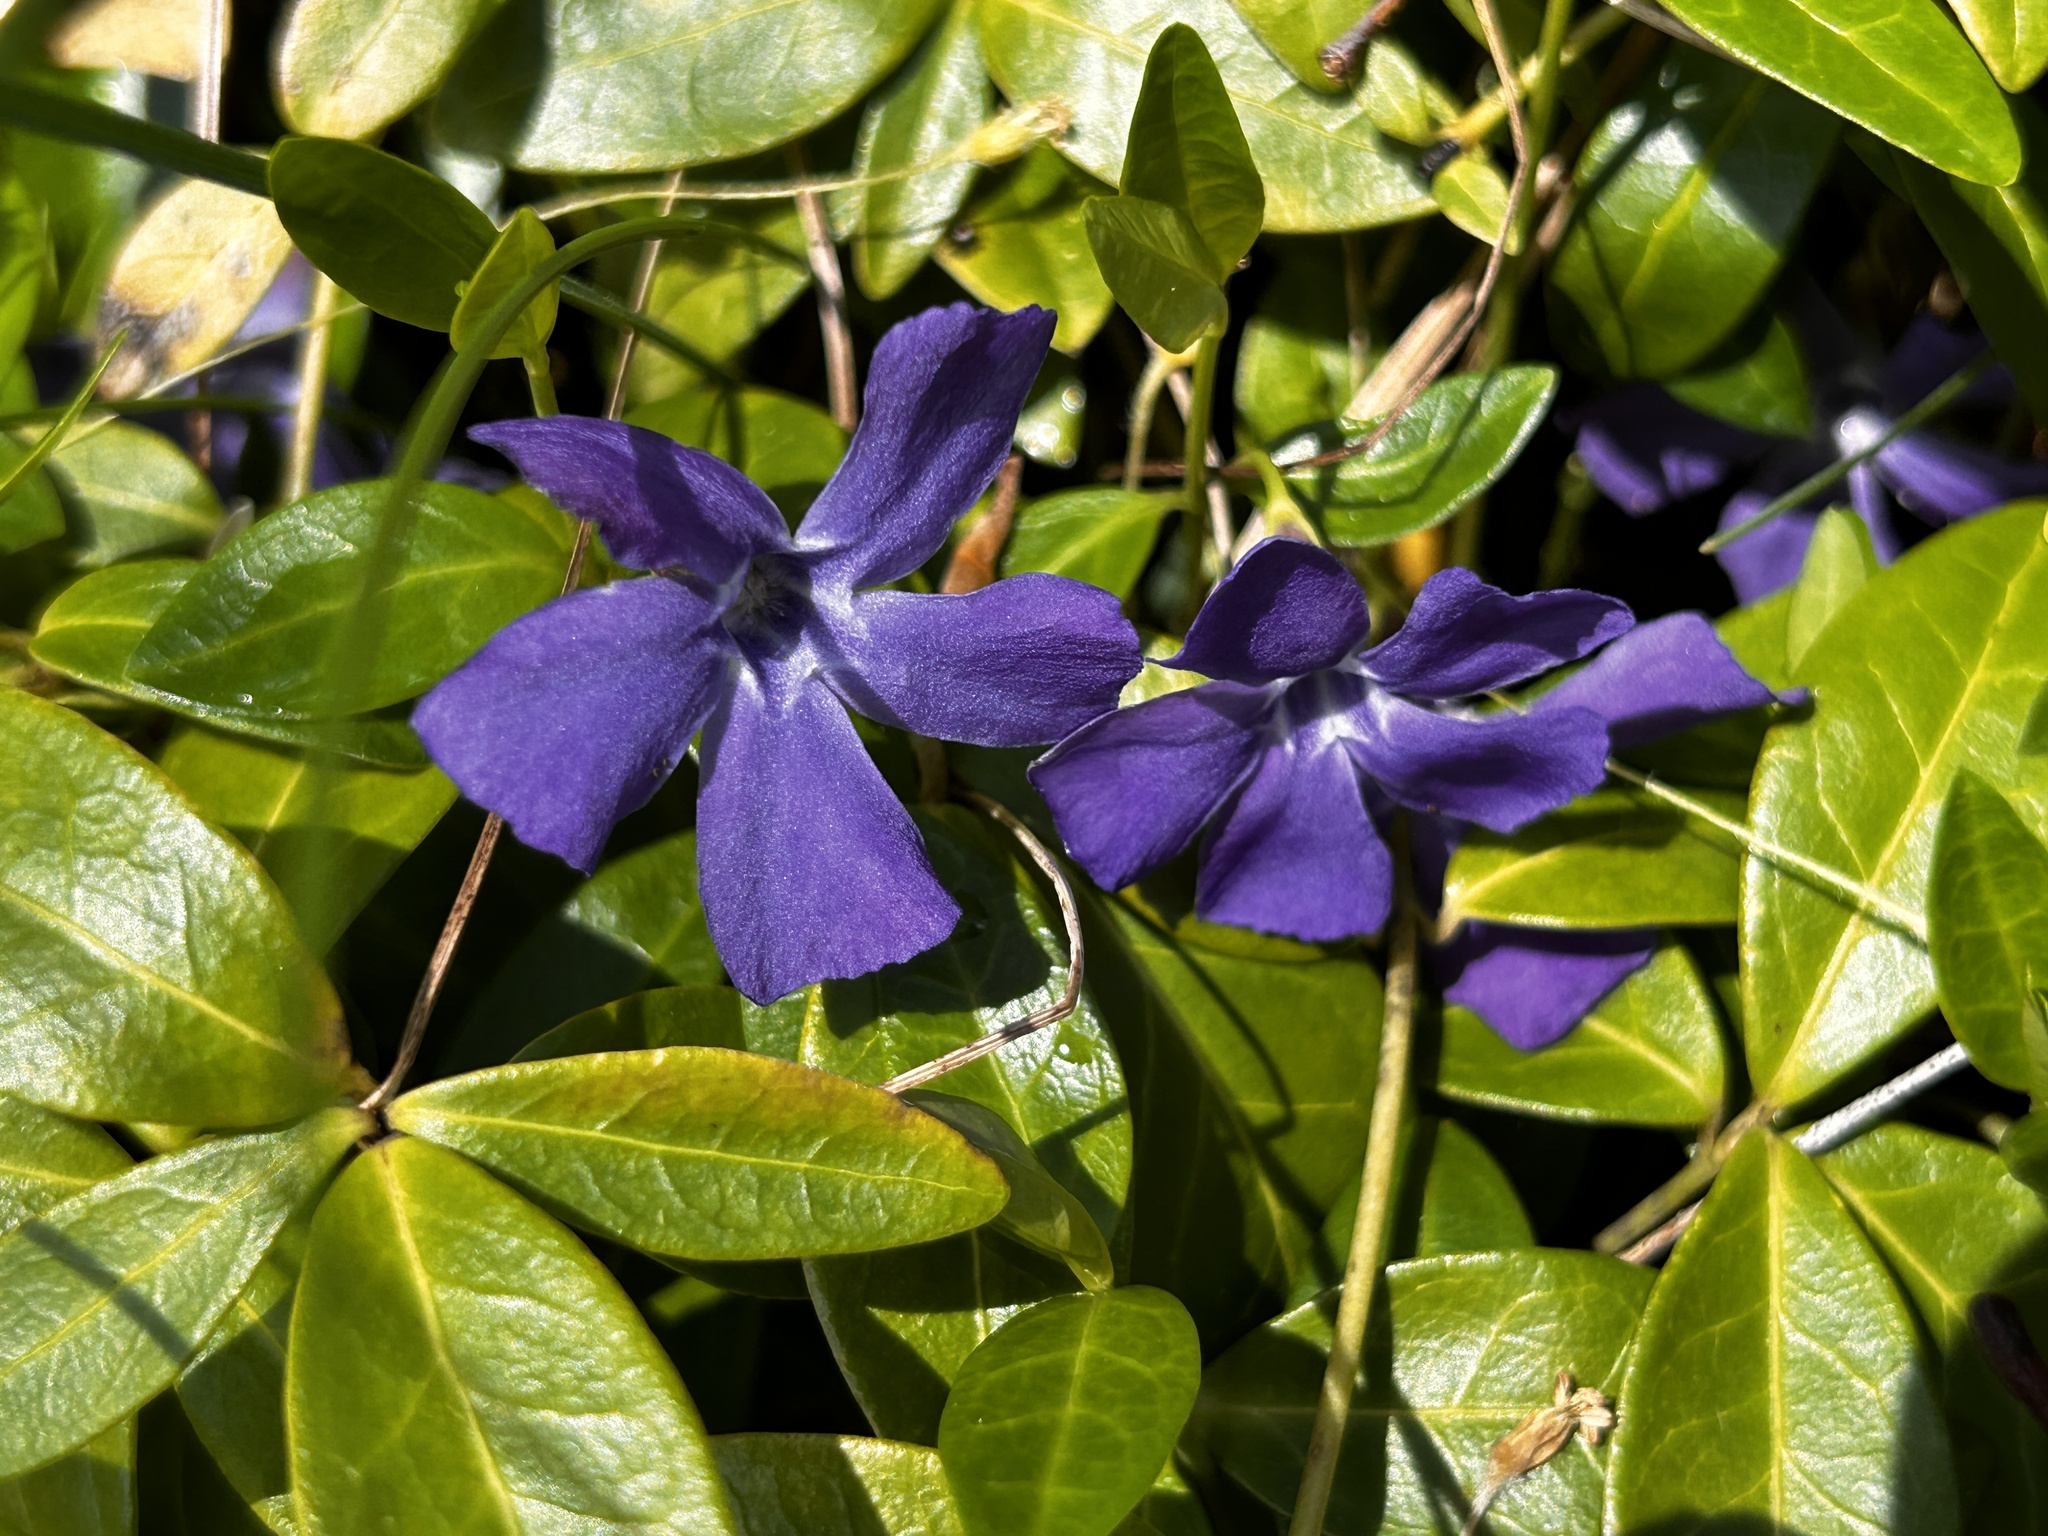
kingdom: Plantae
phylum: Tracheophyta
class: Magnoliopsida
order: Gentianales
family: Apocynaceae
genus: Vinca
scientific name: Vinca minor
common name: Lesser periwinkle
